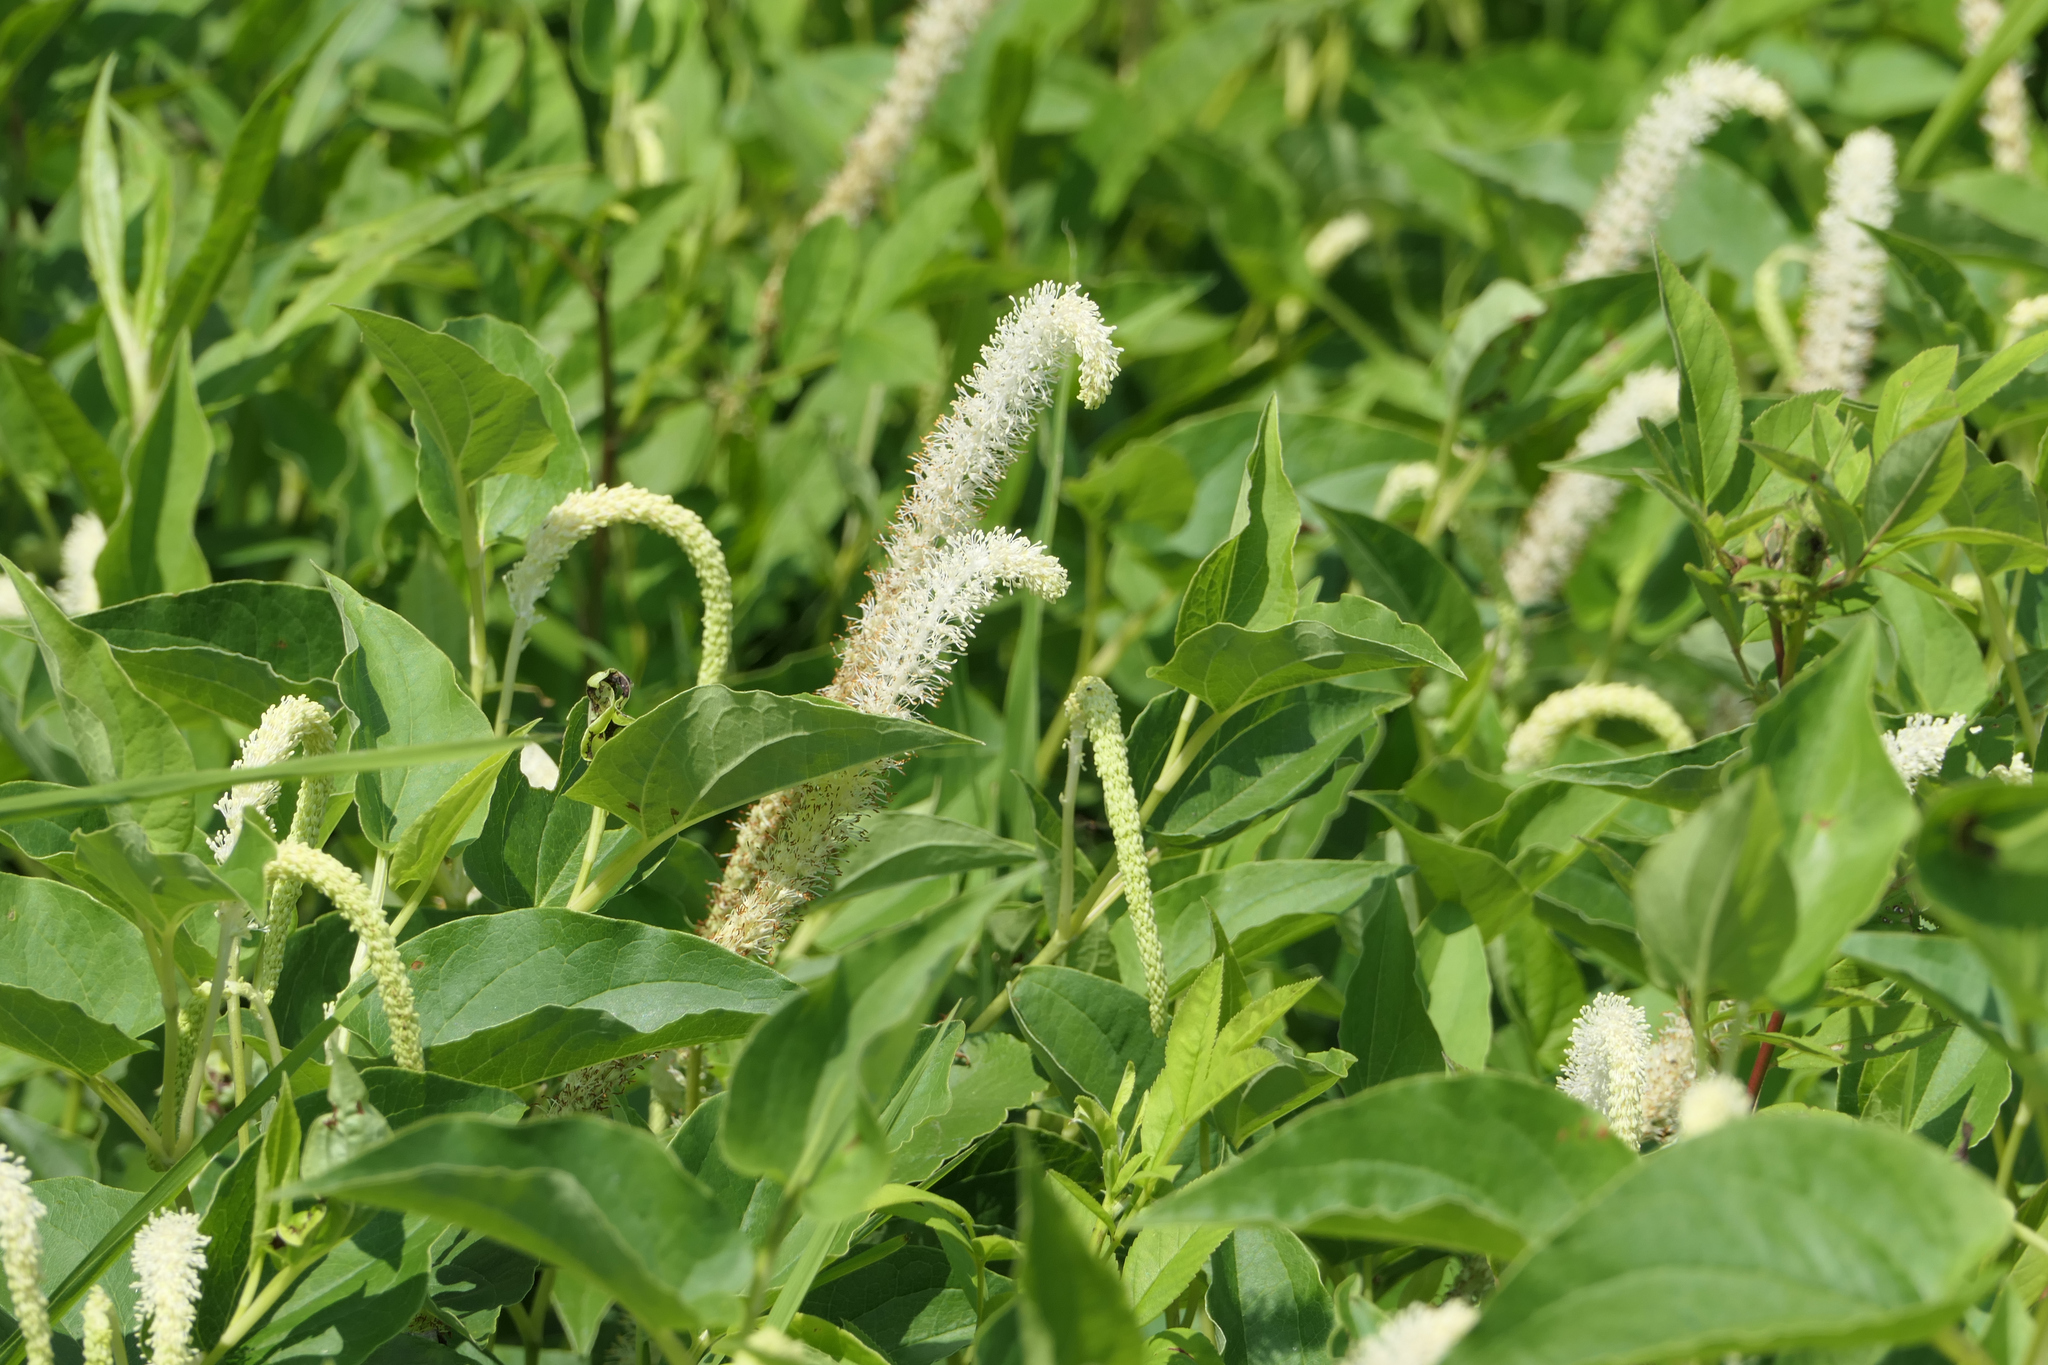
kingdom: Plantae
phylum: Tracheophyta
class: Magnoliopsida
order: Piperales
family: Saururaceae
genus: Saururus
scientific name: Saururus cernuus
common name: Lizard's-tail
